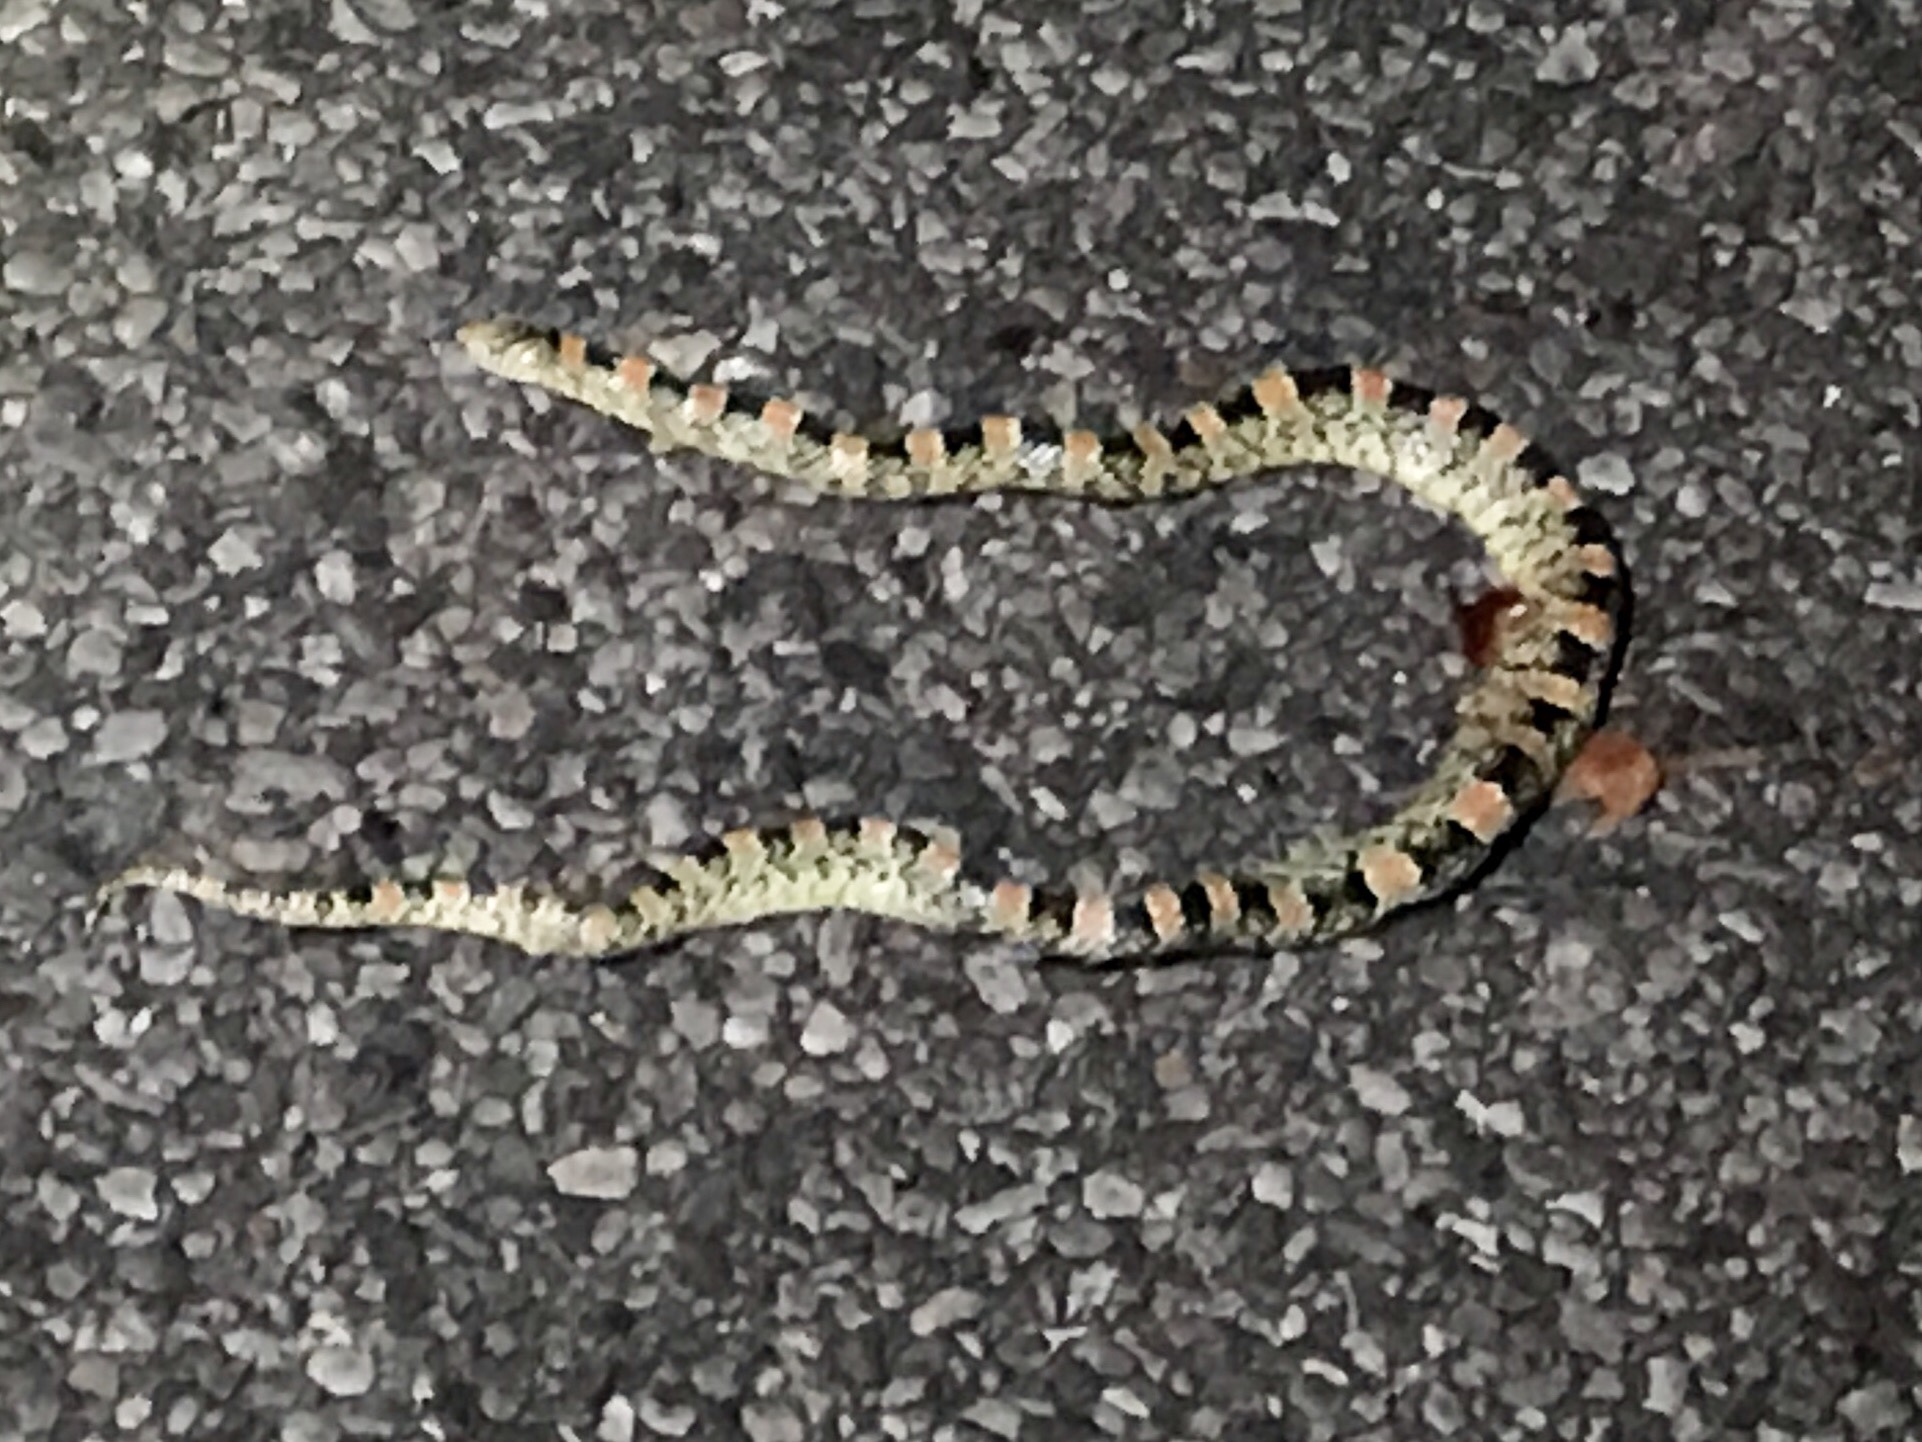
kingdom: Animalia
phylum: Chordata
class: Squamata
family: Colubridae
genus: Rhinocheilus
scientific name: Rhinocheilus lecontei
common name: Longnose snake
